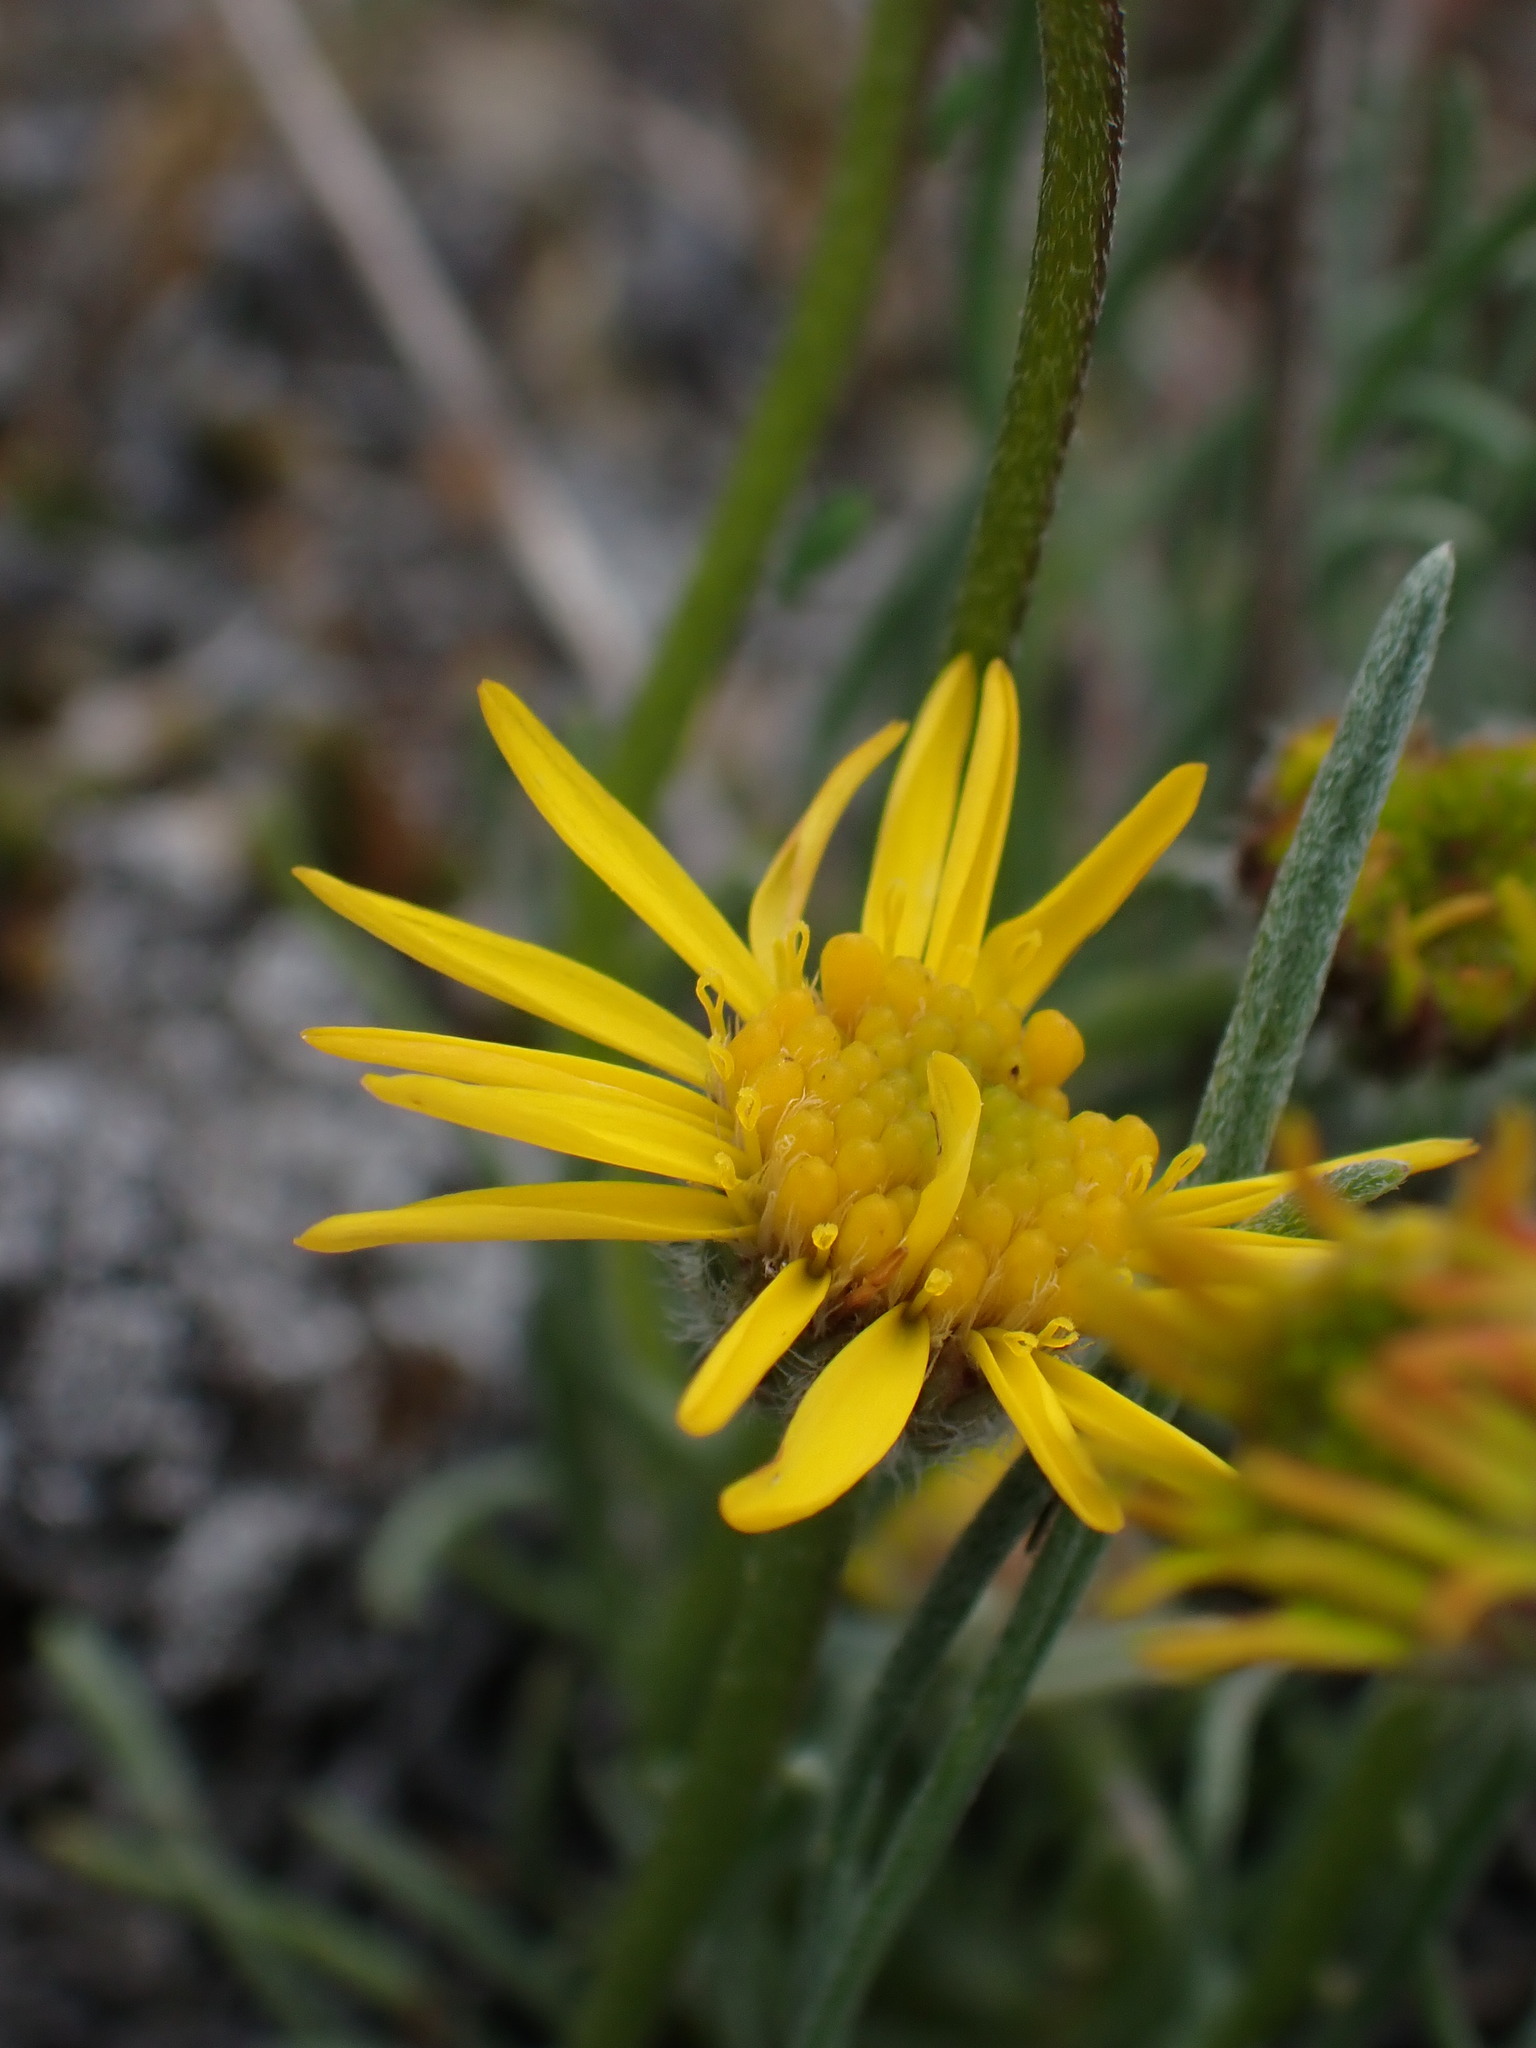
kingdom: Plantae
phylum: Tracheophyta
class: Magnoliopsida
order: Asterales
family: Asteraceae
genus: Erigeron
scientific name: Erigeron linearis
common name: Desert yellow fleabane
